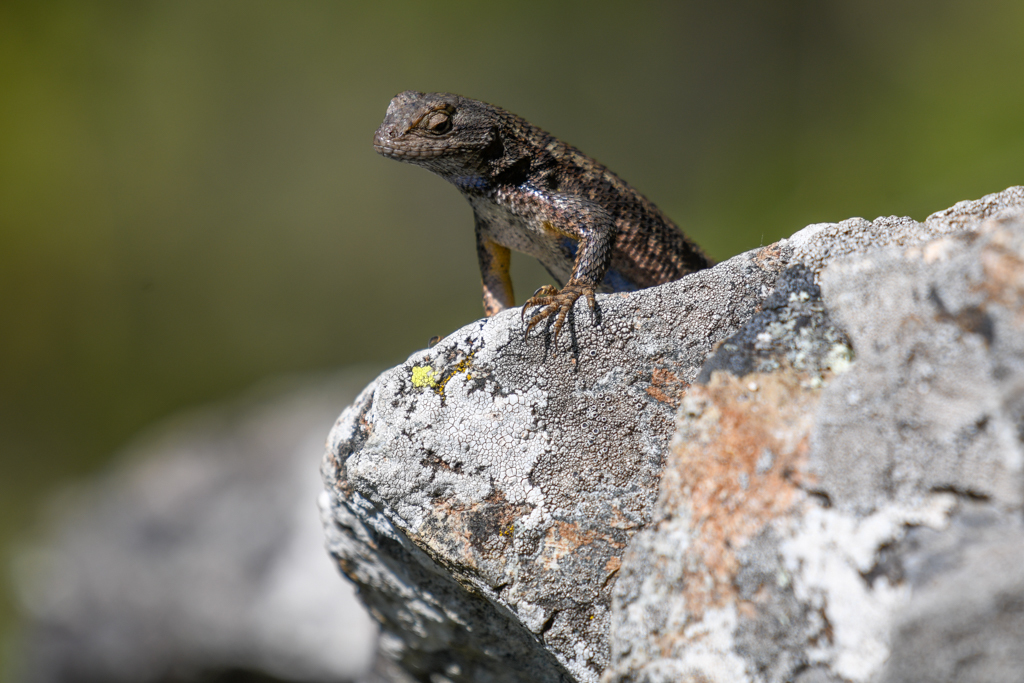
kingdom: Animalia
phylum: Chordata
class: Squamata
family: Phrynosomatidae
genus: Sceloporus
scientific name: Sceloporus occidentalis
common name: Western fence lizard
